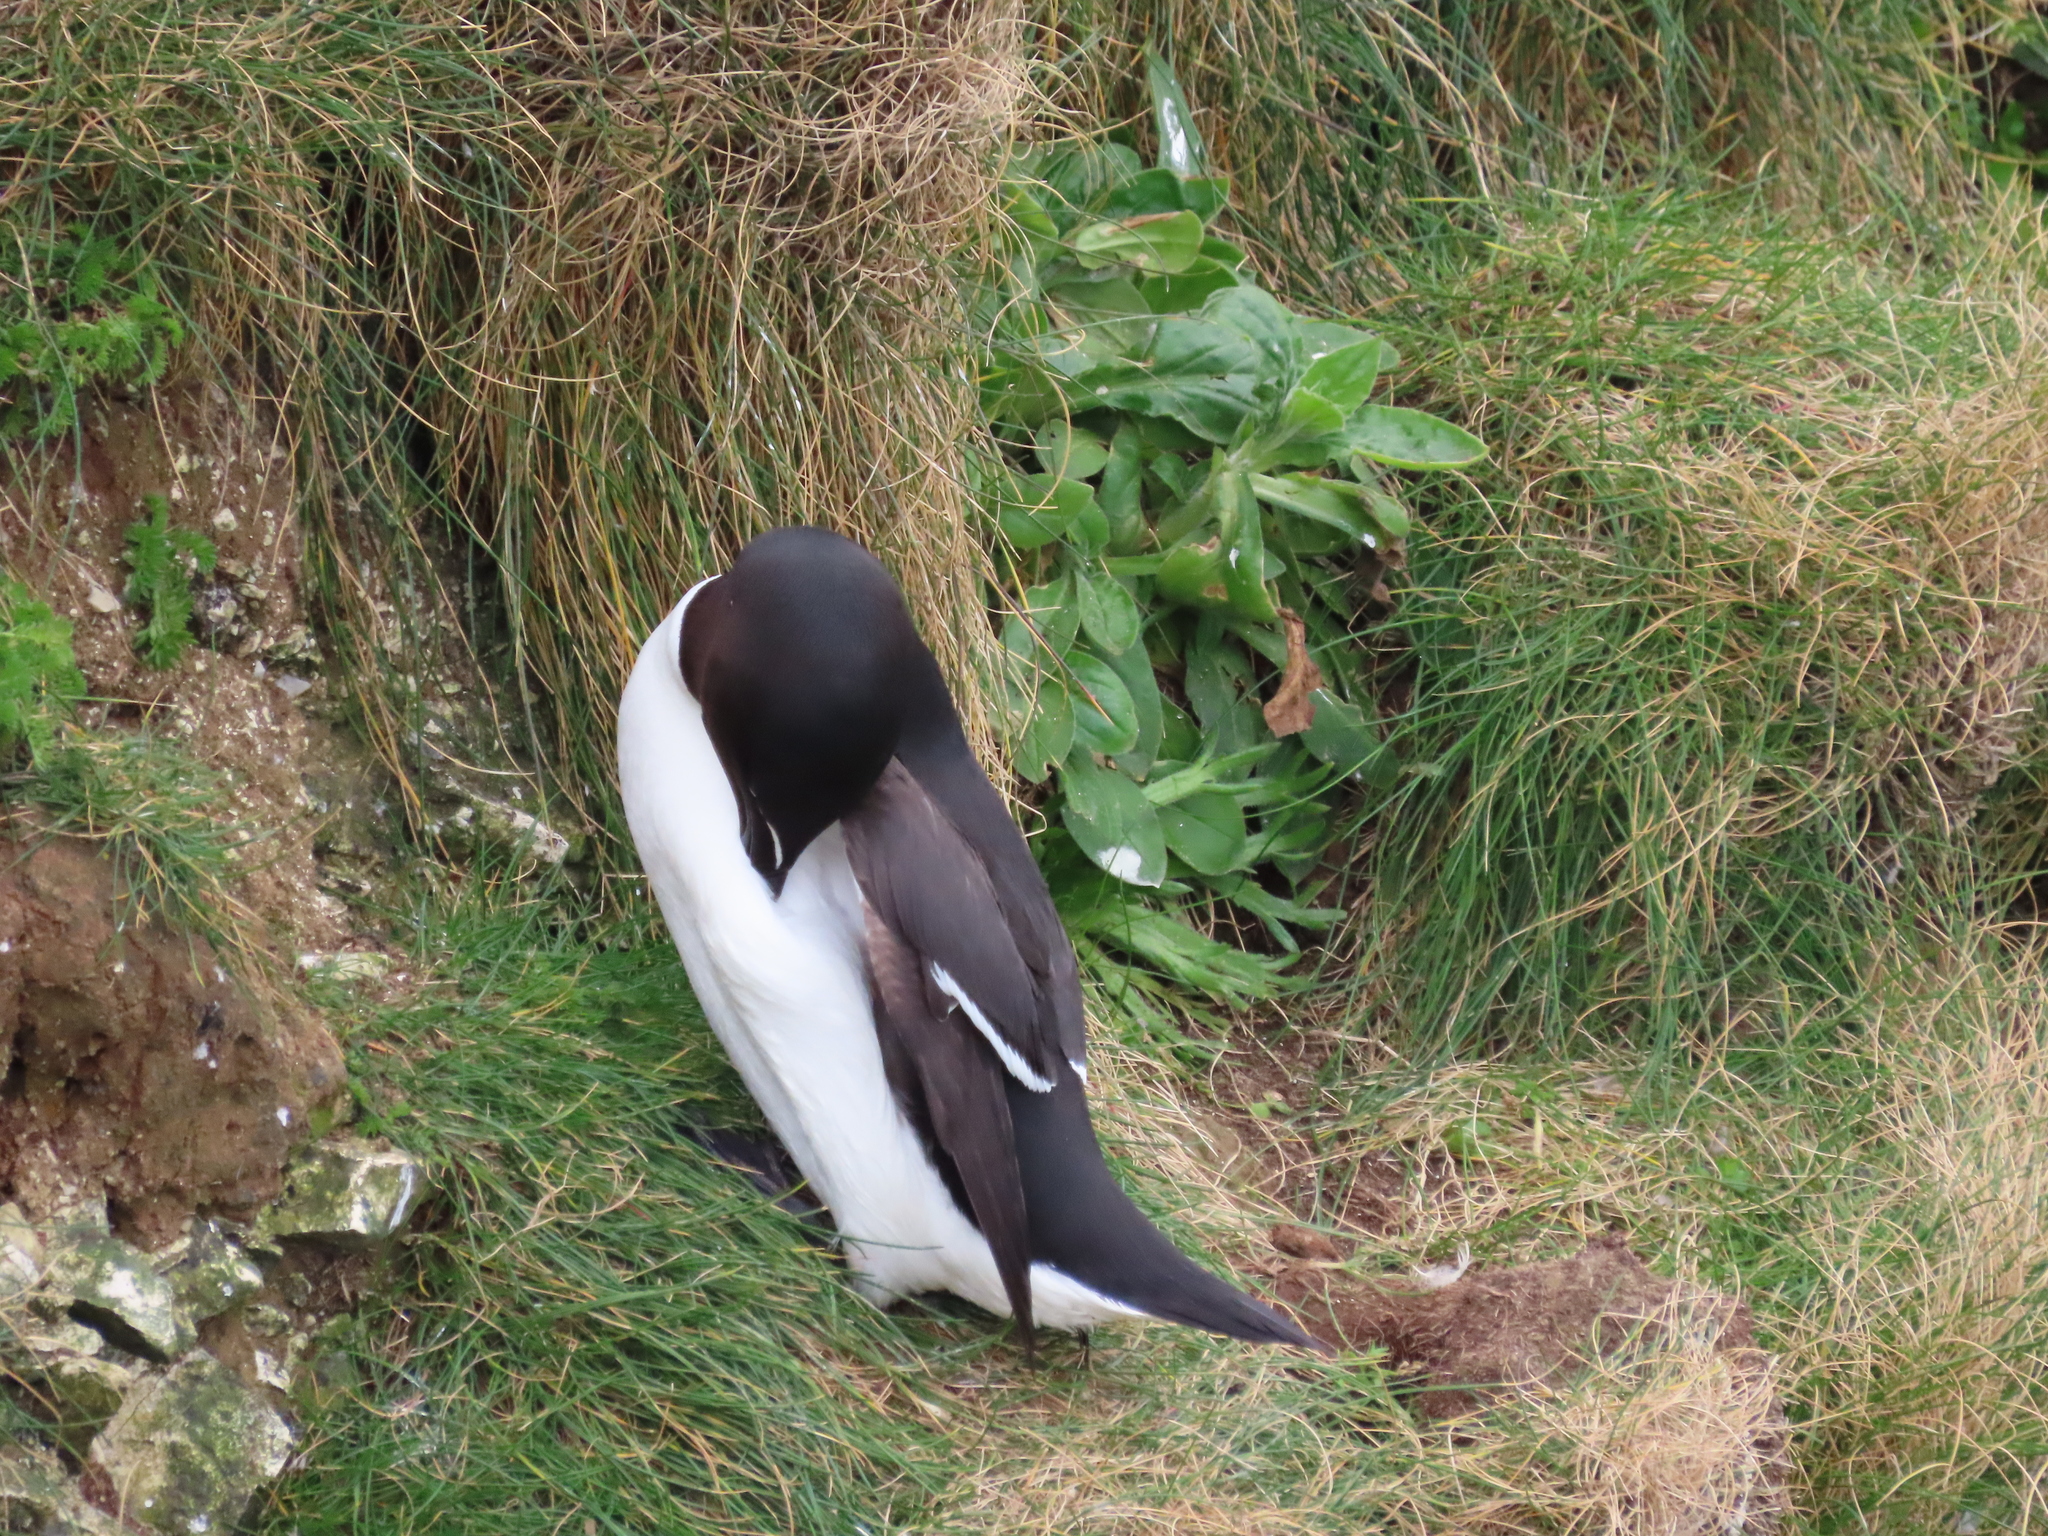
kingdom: Animalia
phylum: Chordata
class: Aves
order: Charadriiformes
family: Alcidae
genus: Alca
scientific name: Alca torda
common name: Razorbill
